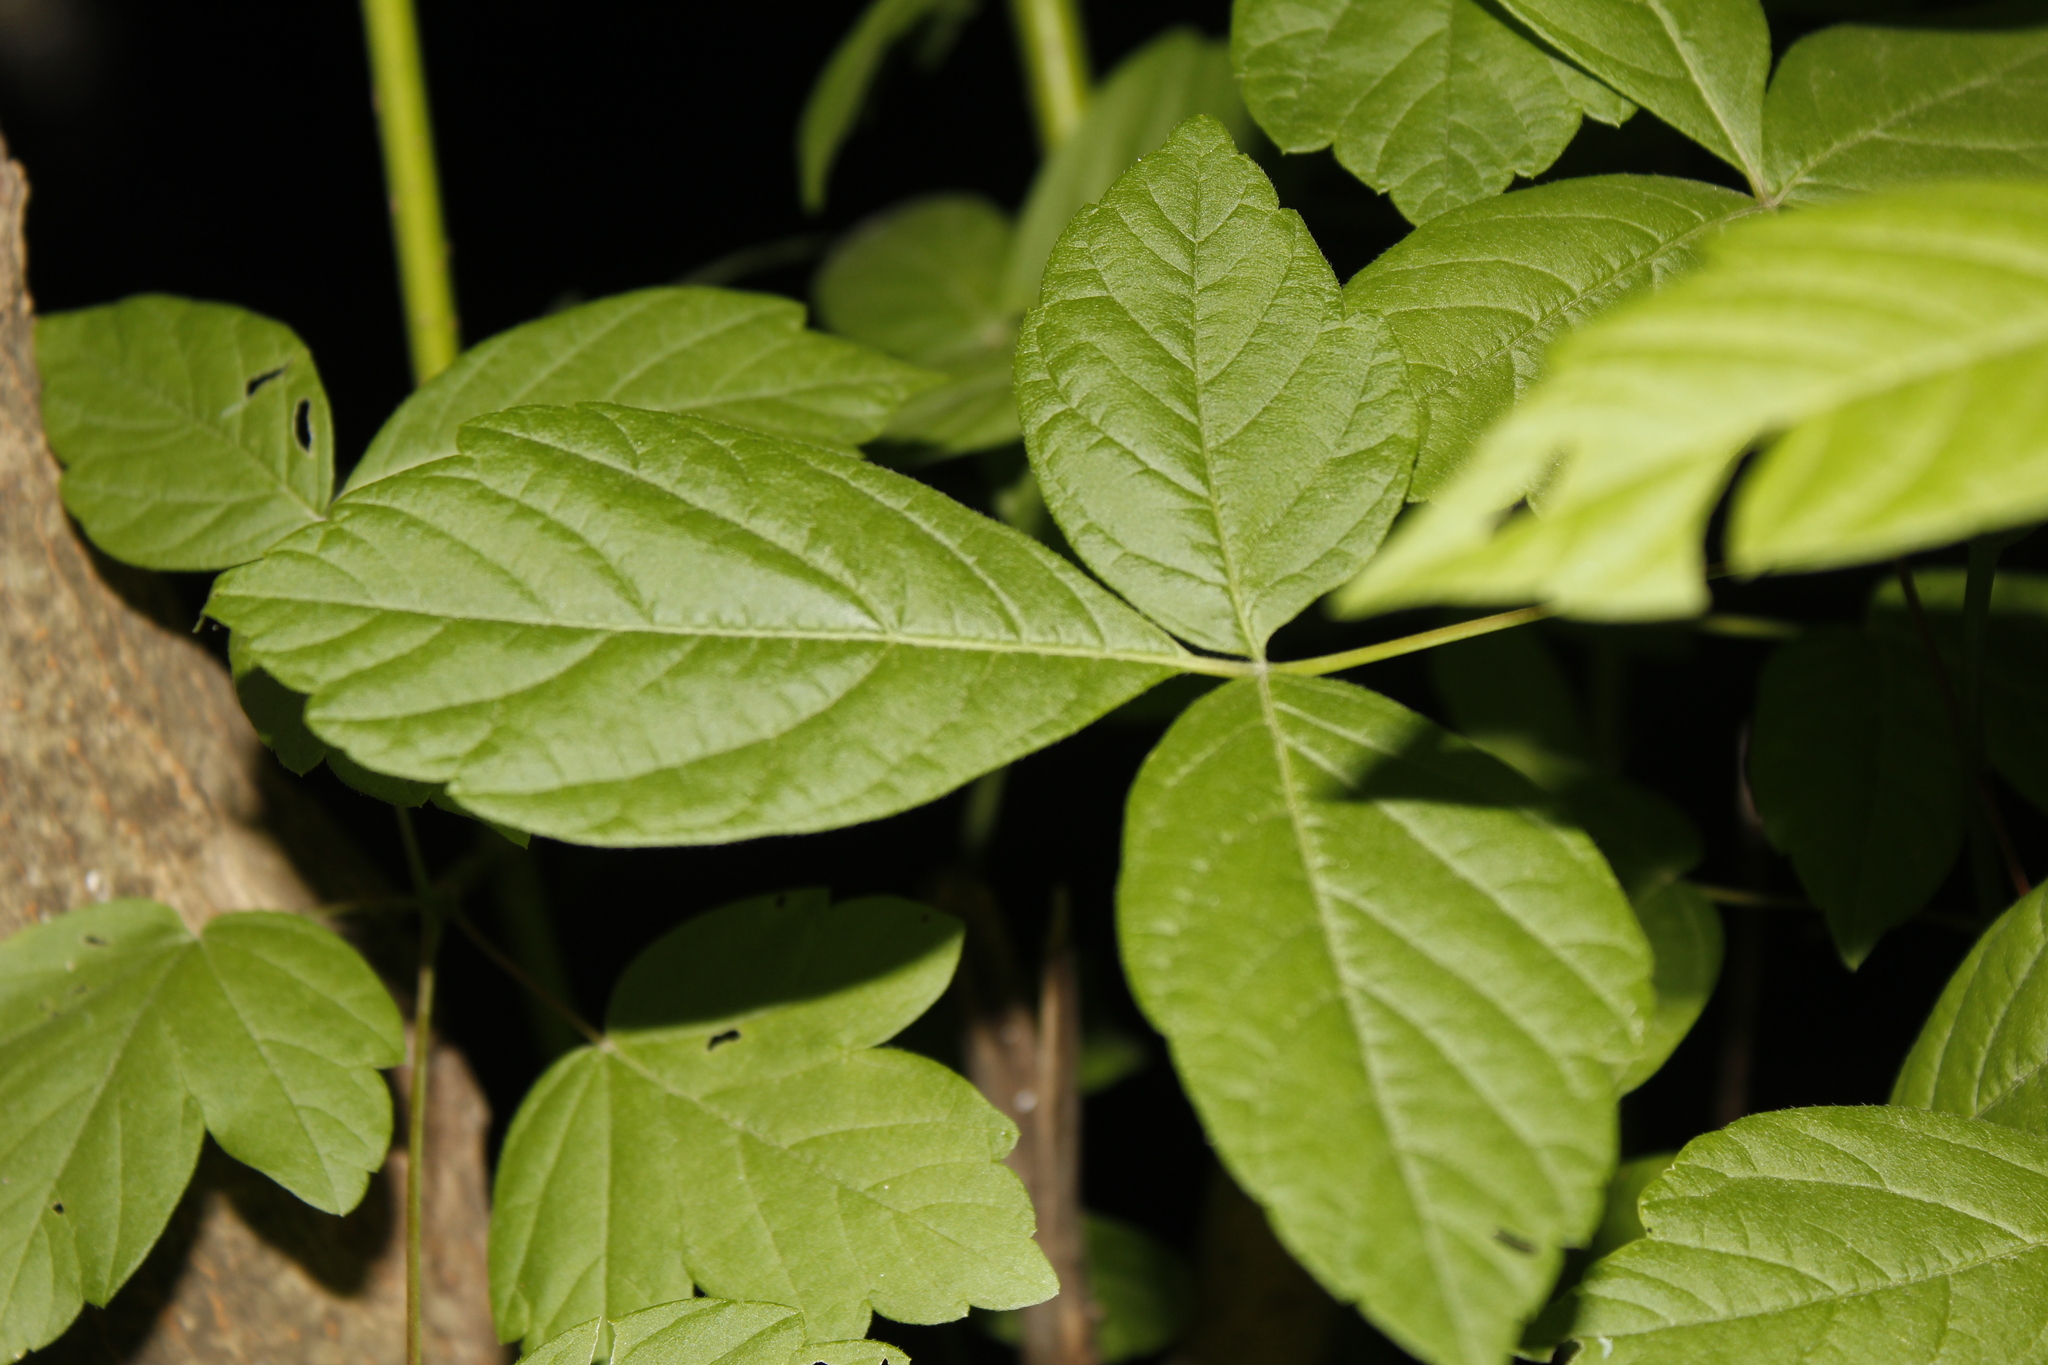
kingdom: Plantae
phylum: Tracheophyta
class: Magnoliopsida
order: Sapindales
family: Sapindaceae
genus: Acer
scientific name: Acer negundo
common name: Ashleaf maple
